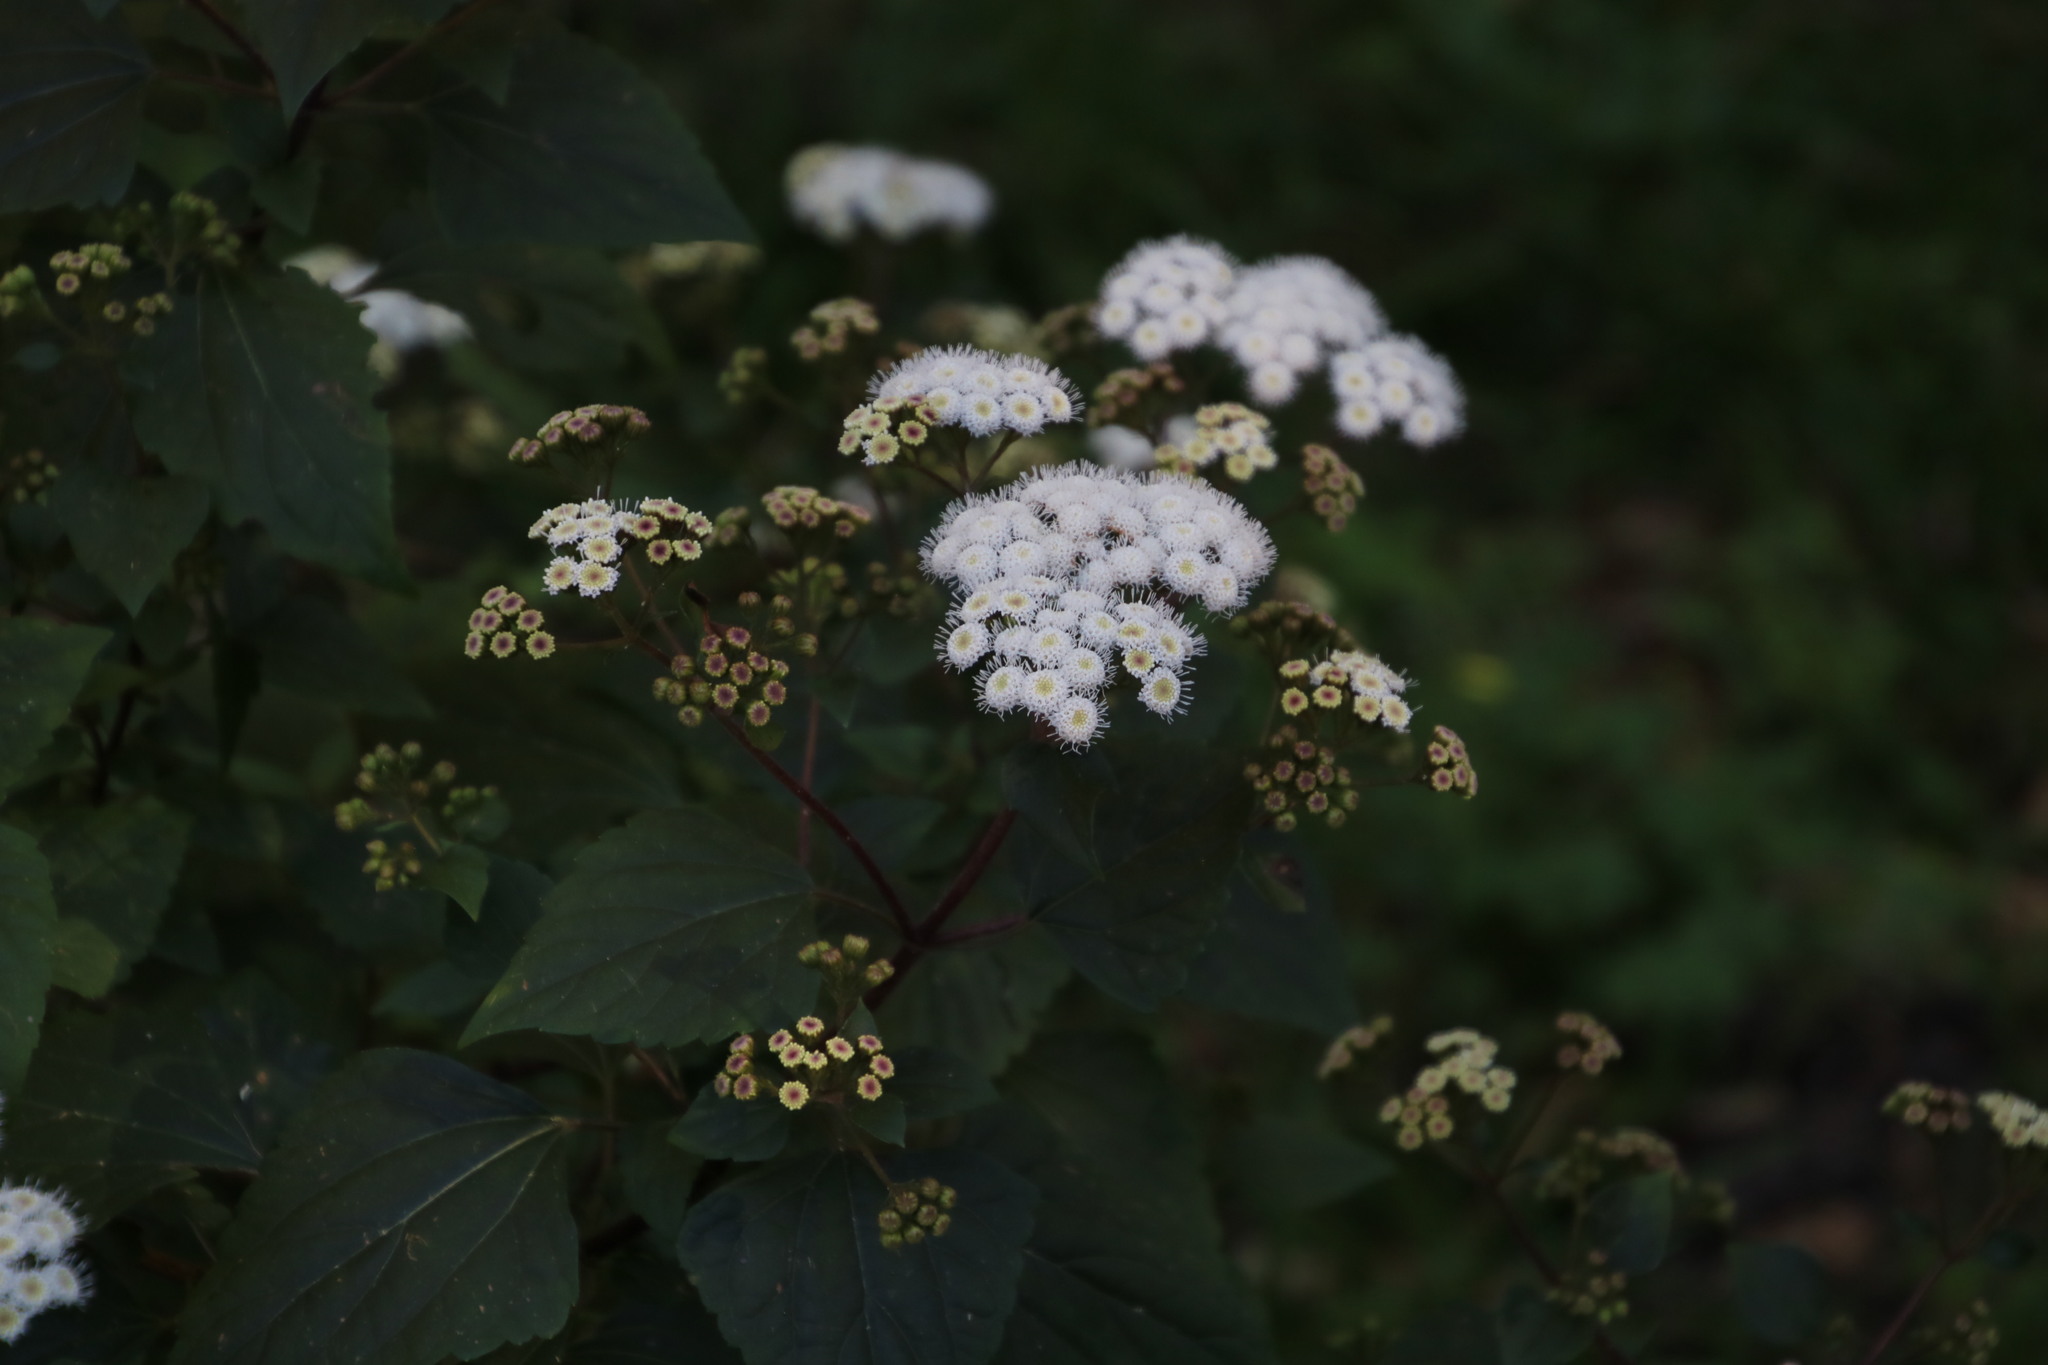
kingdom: Plantae
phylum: Tracheophyta
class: Magnoliopsida
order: Asterales
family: Asteraceae
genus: Ageratina
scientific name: Ageratina adenophora
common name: Sticky snakeroot
